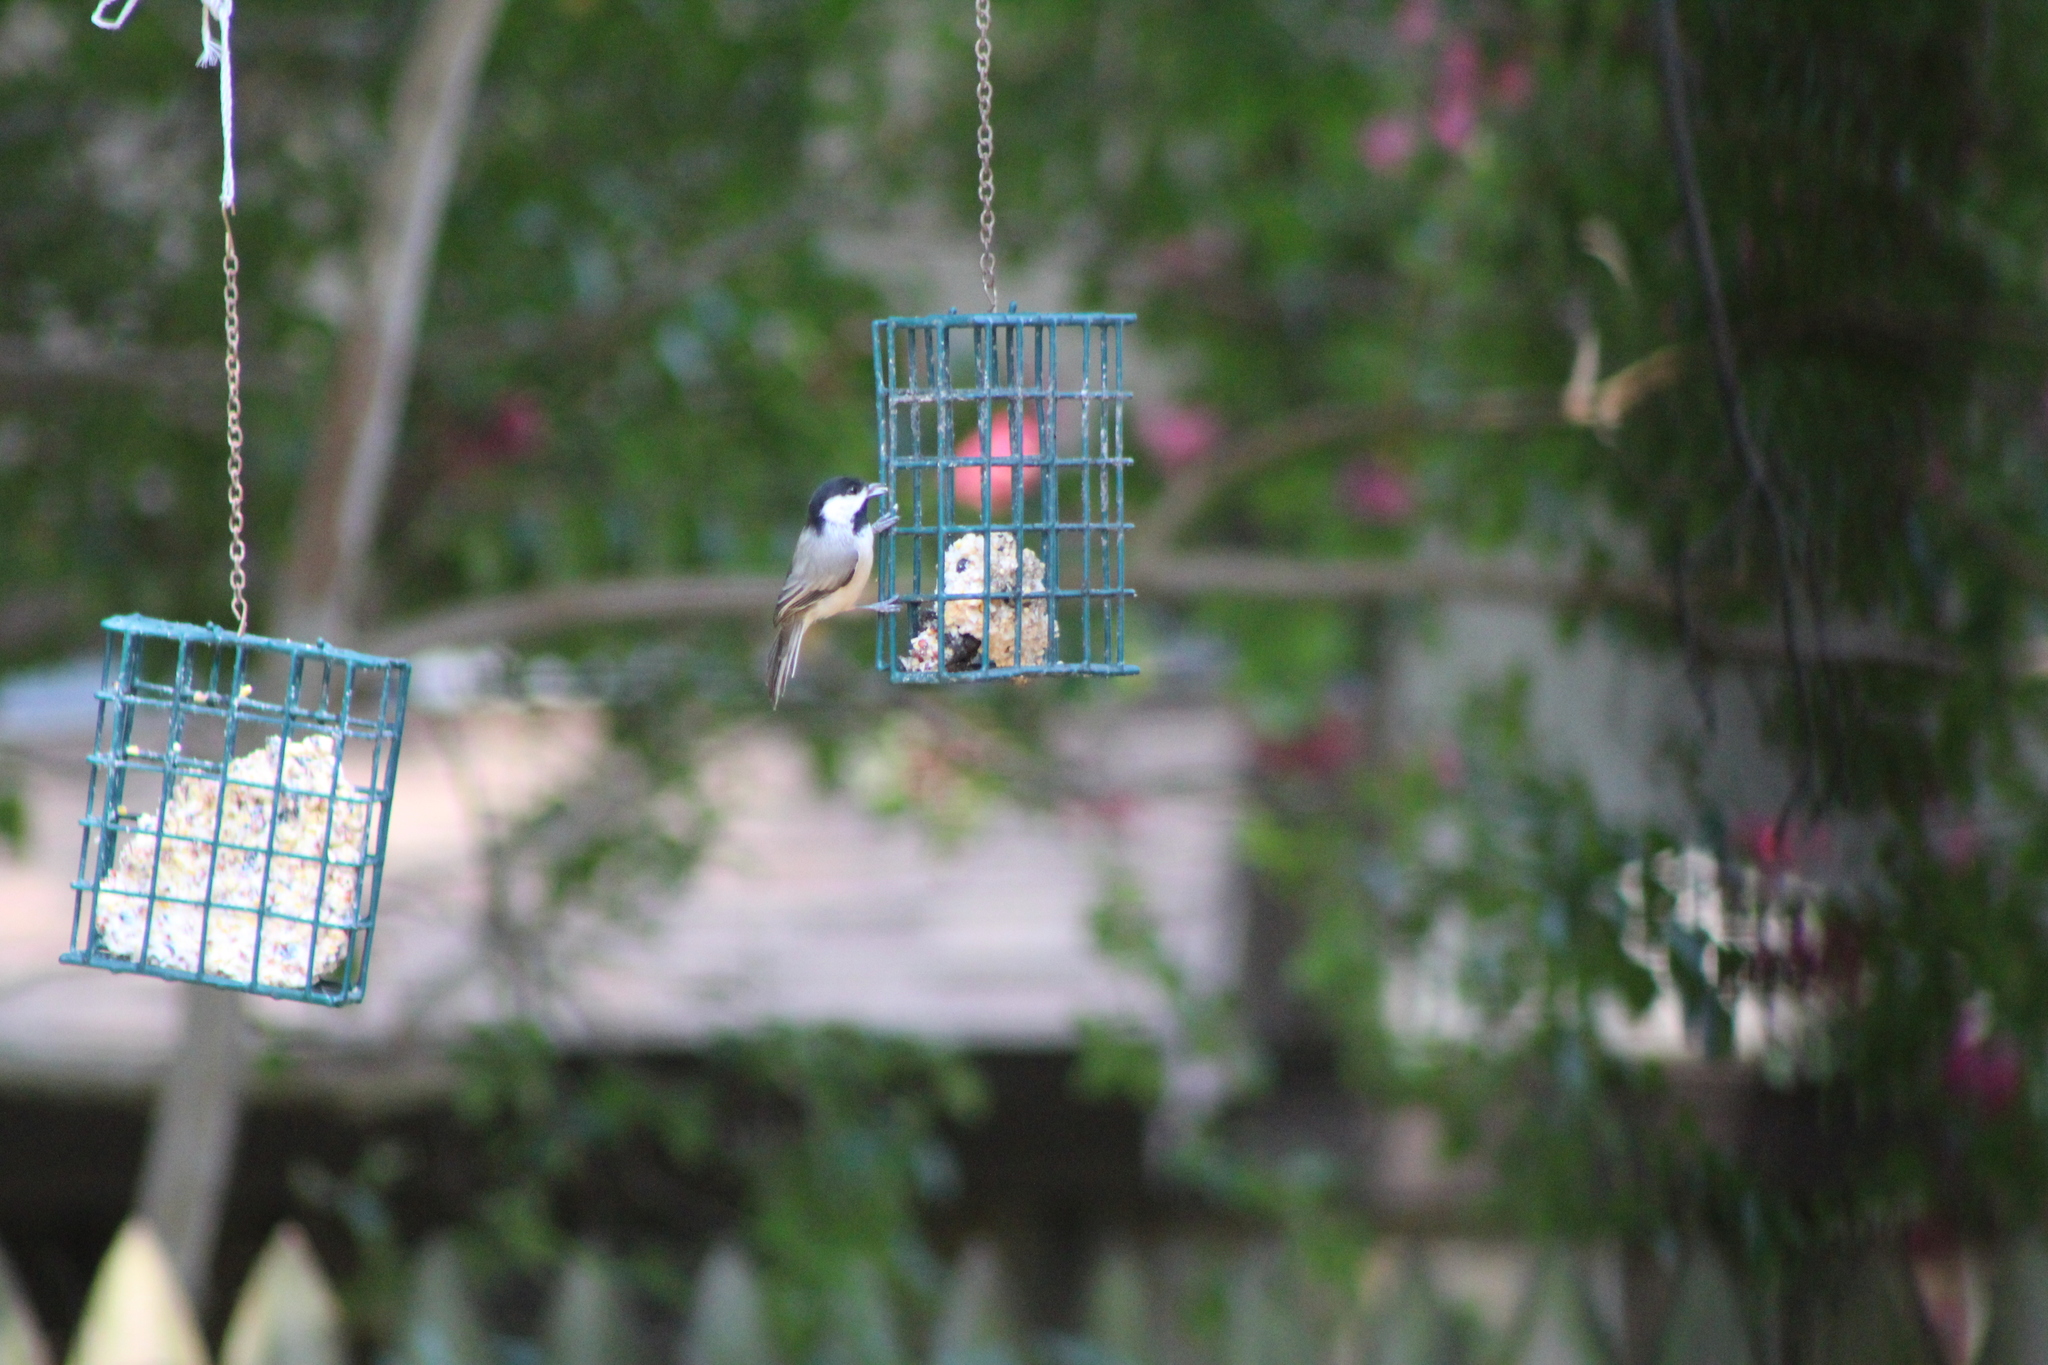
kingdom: Animalia
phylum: Chordata
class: Aves
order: Passeriformes
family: Paridae
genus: Poecile
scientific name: Poecile carolinensis
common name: Carolina chickadee
